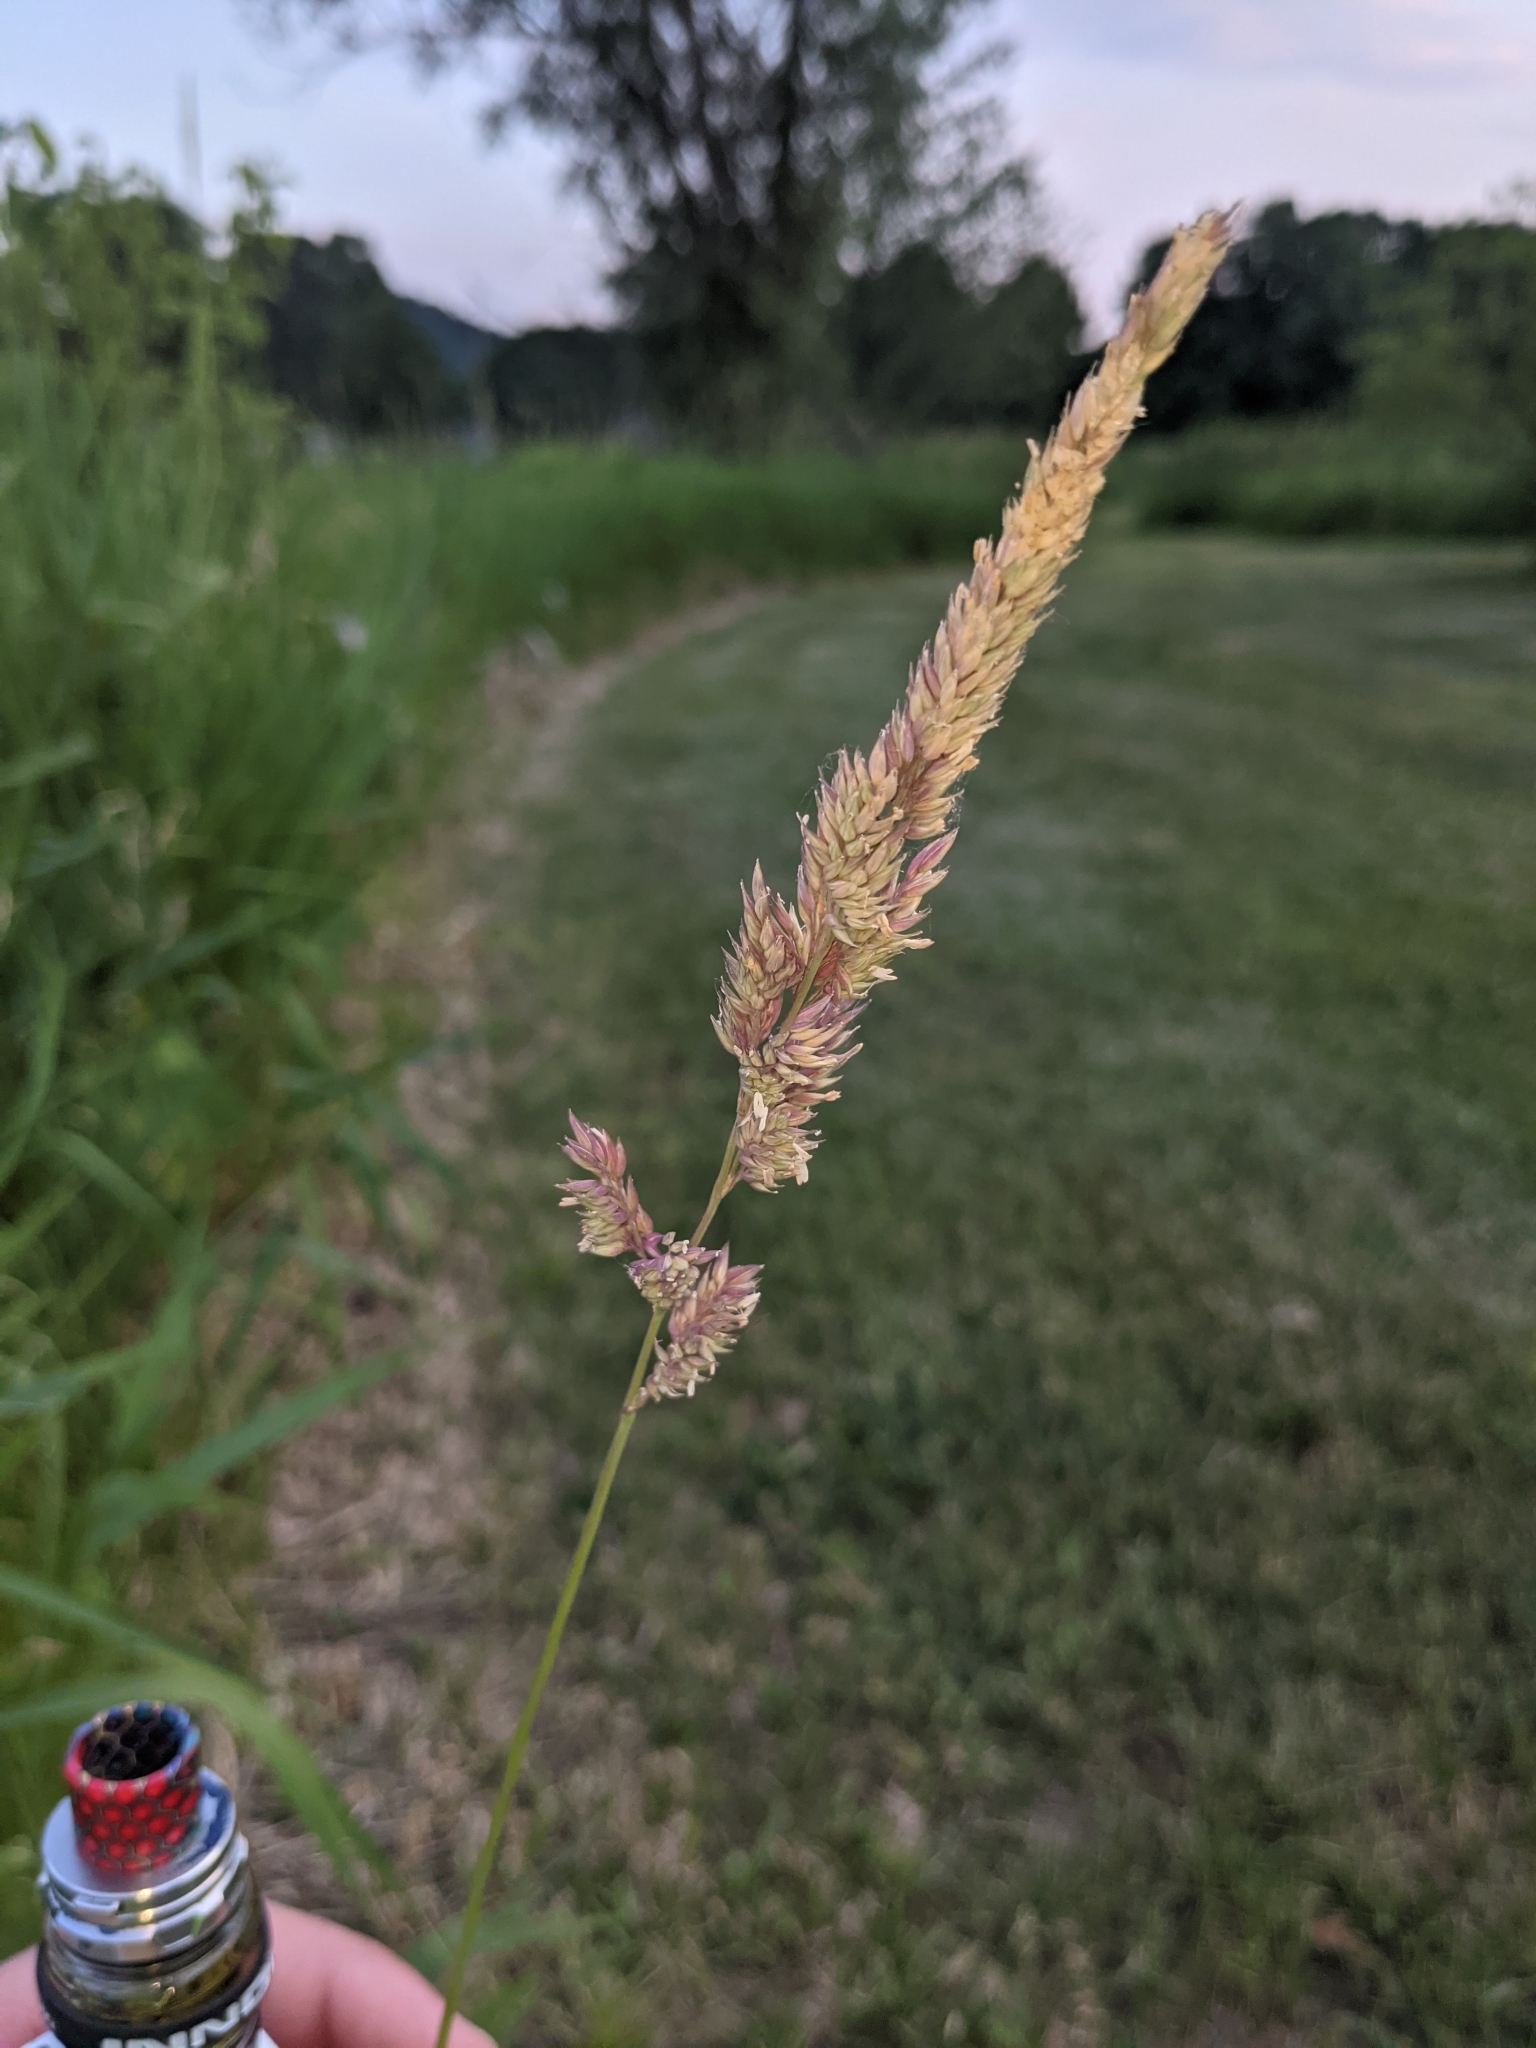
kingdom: Plantae
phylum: Tracheophyta
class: Liliopsida
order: Poales
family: Poaceae
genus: Phalaris
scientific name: Phalaris arundinacea
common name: Reed canary-grass
